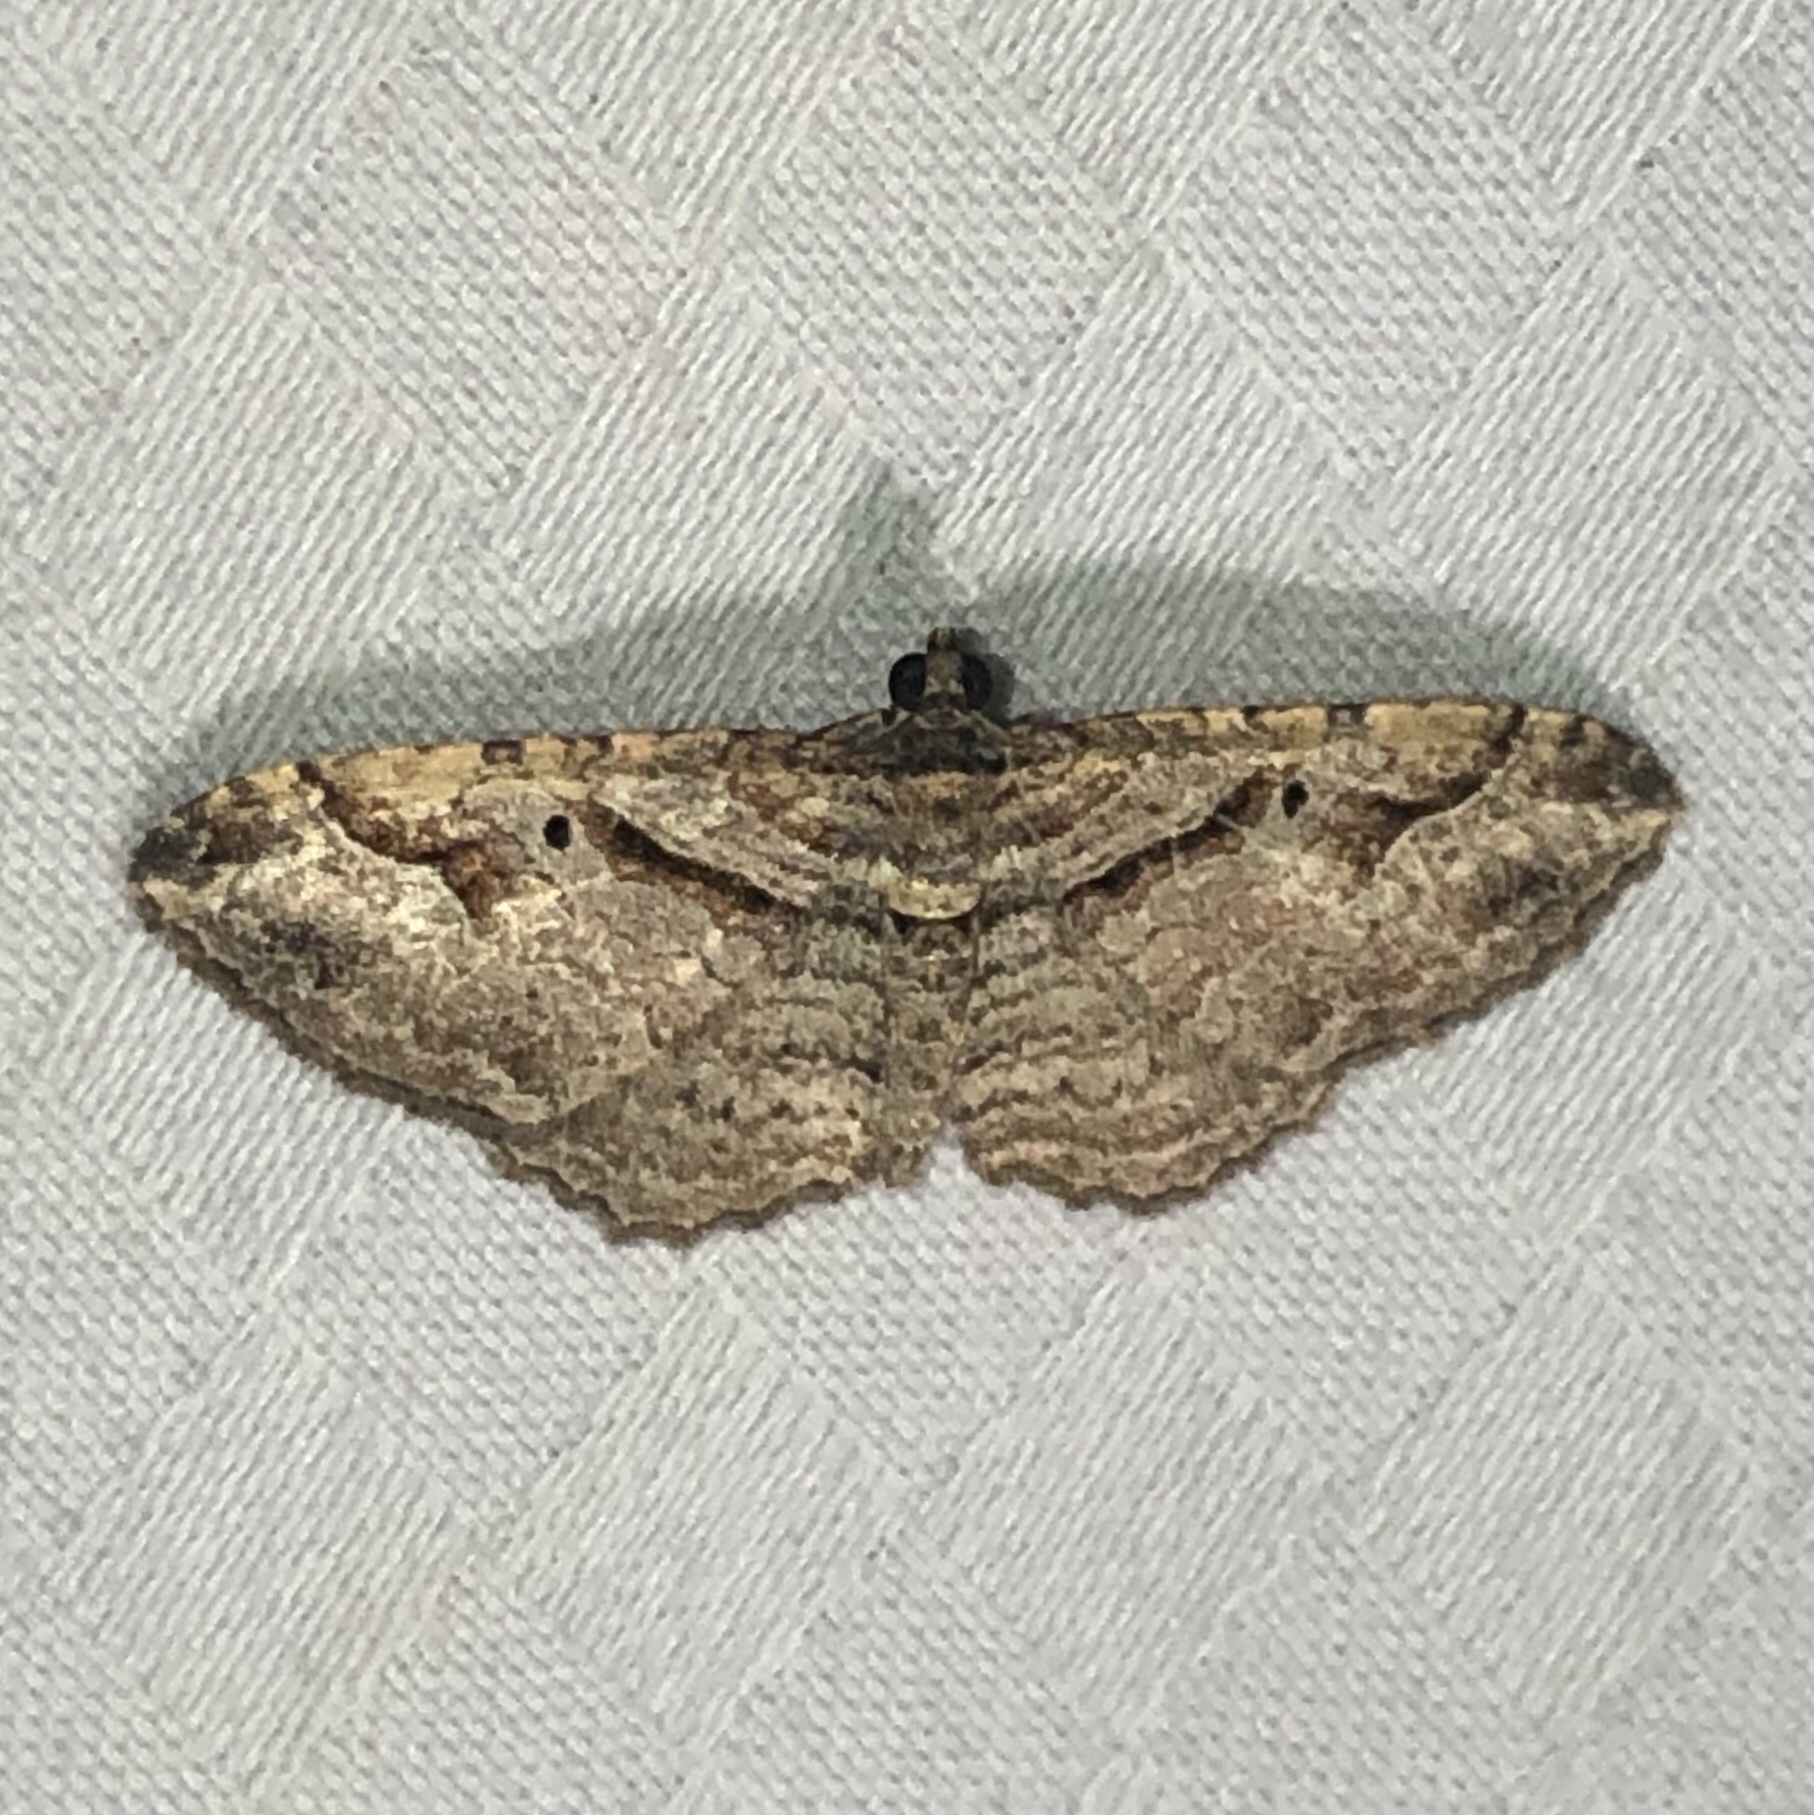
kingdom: Animalia
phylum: Arthropoda
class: Insecta
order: Lepidoptera
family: Geometridae
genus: Costaconvexa
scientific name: Costaconvexa centrostrigaria
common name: Bent-line carpet
